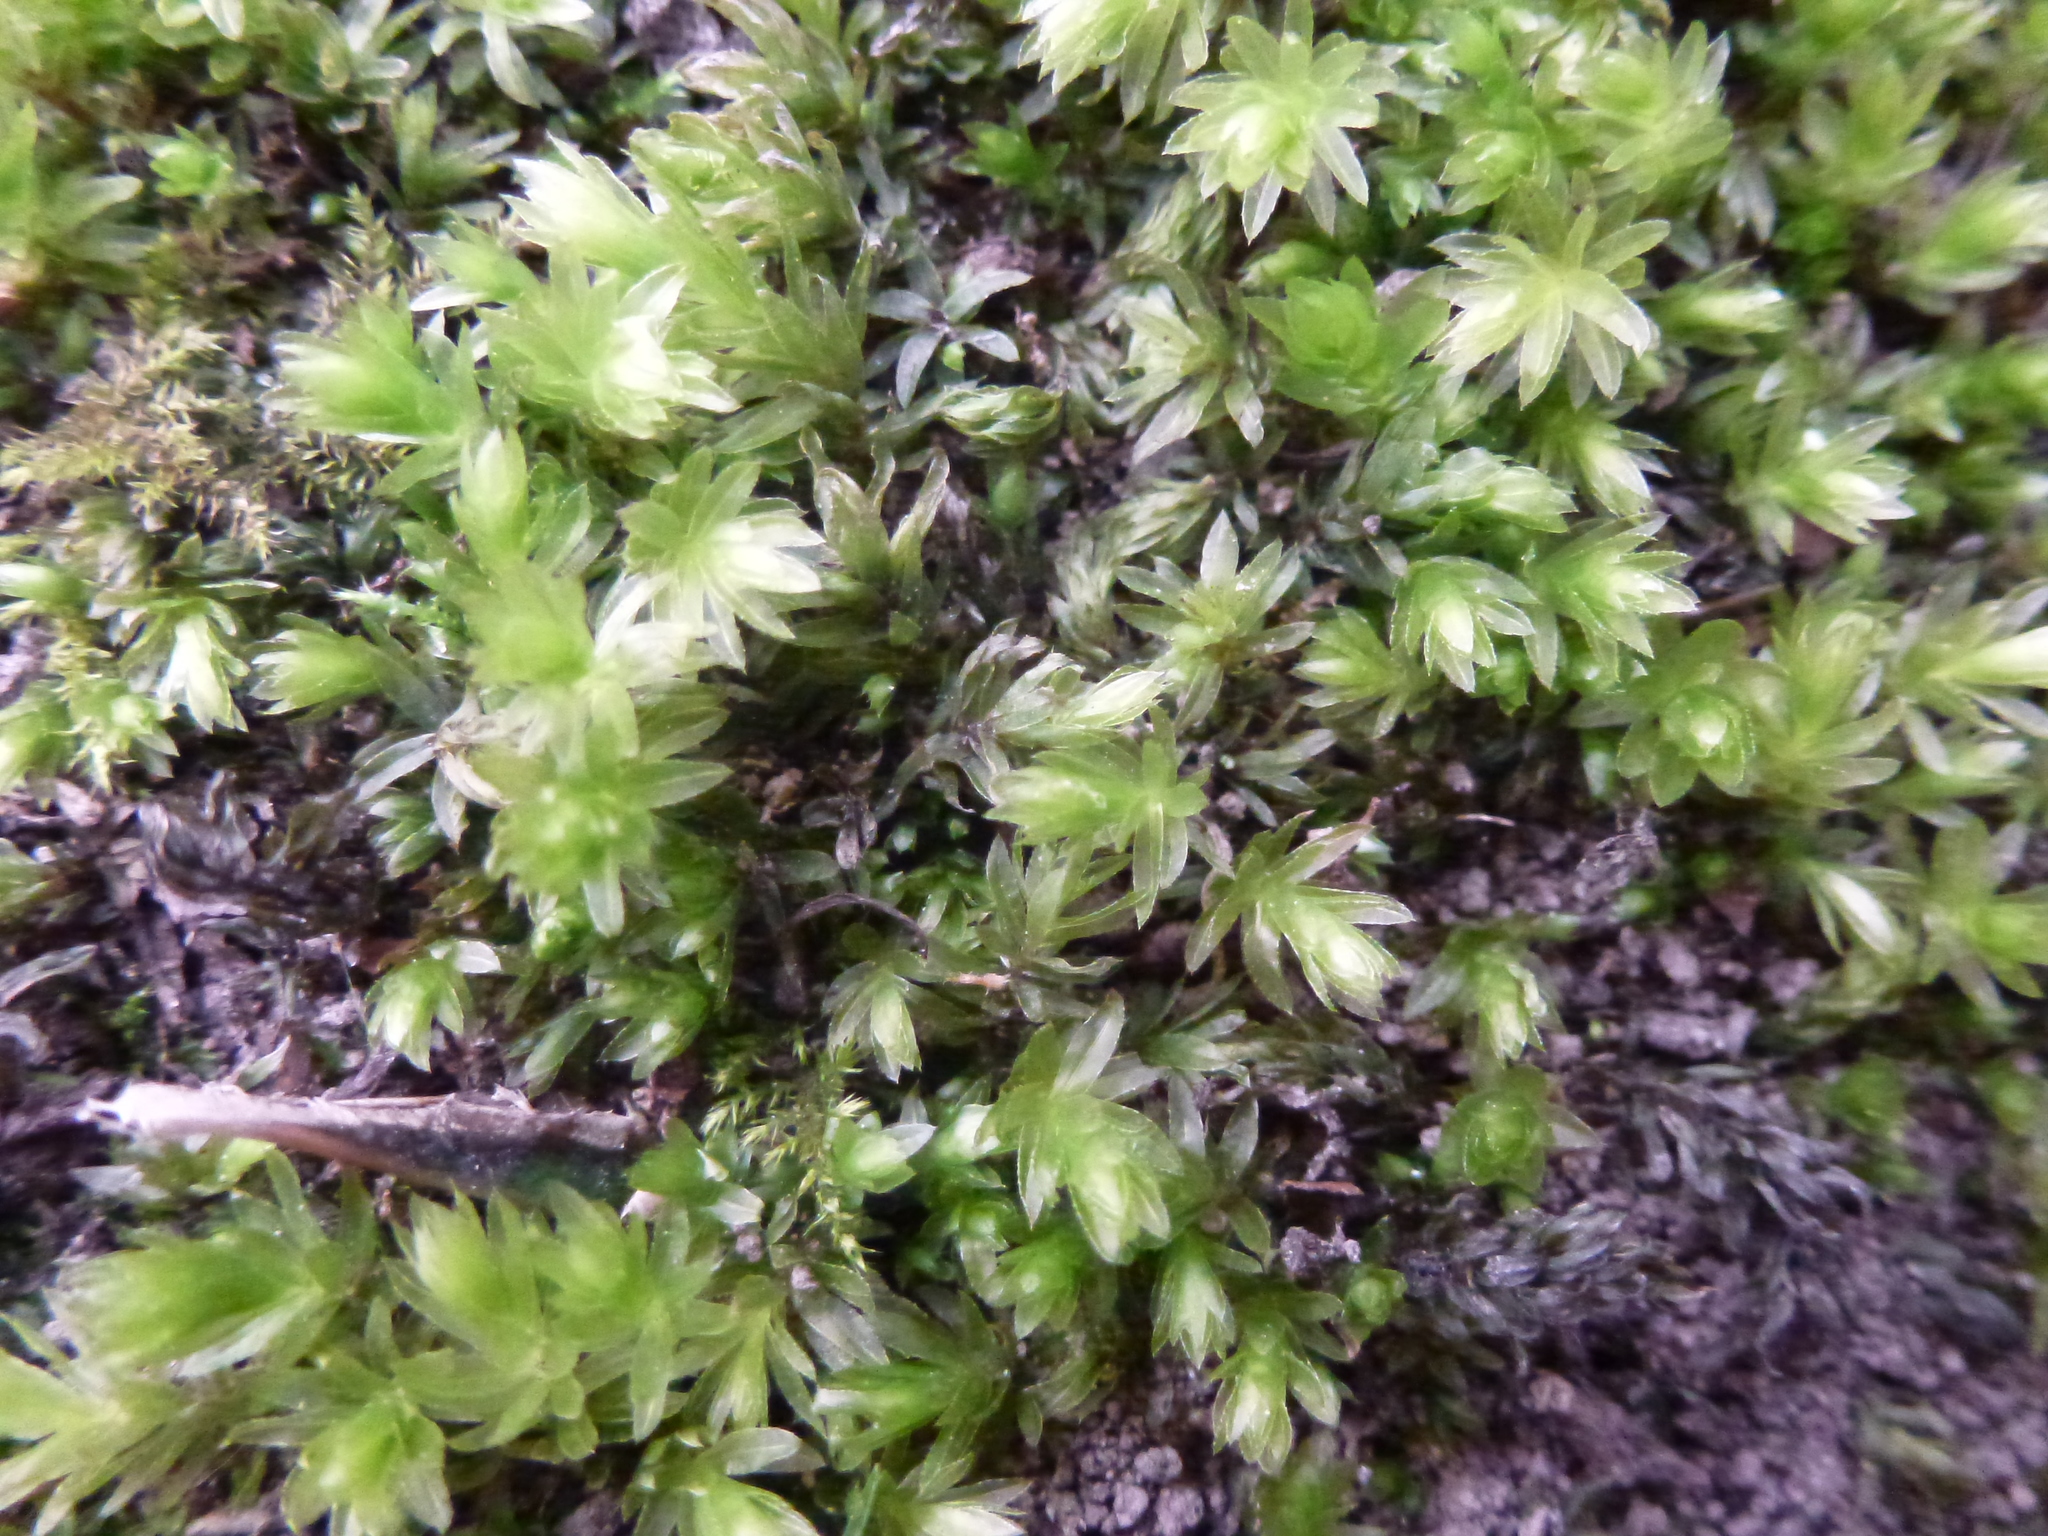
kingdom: Plantae
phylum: Bryophyta
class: Bryopsida
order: Bryales
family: Mniaceae
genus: Mnium
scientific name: Mnium hornum
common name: Swan's-neck leafy moss
